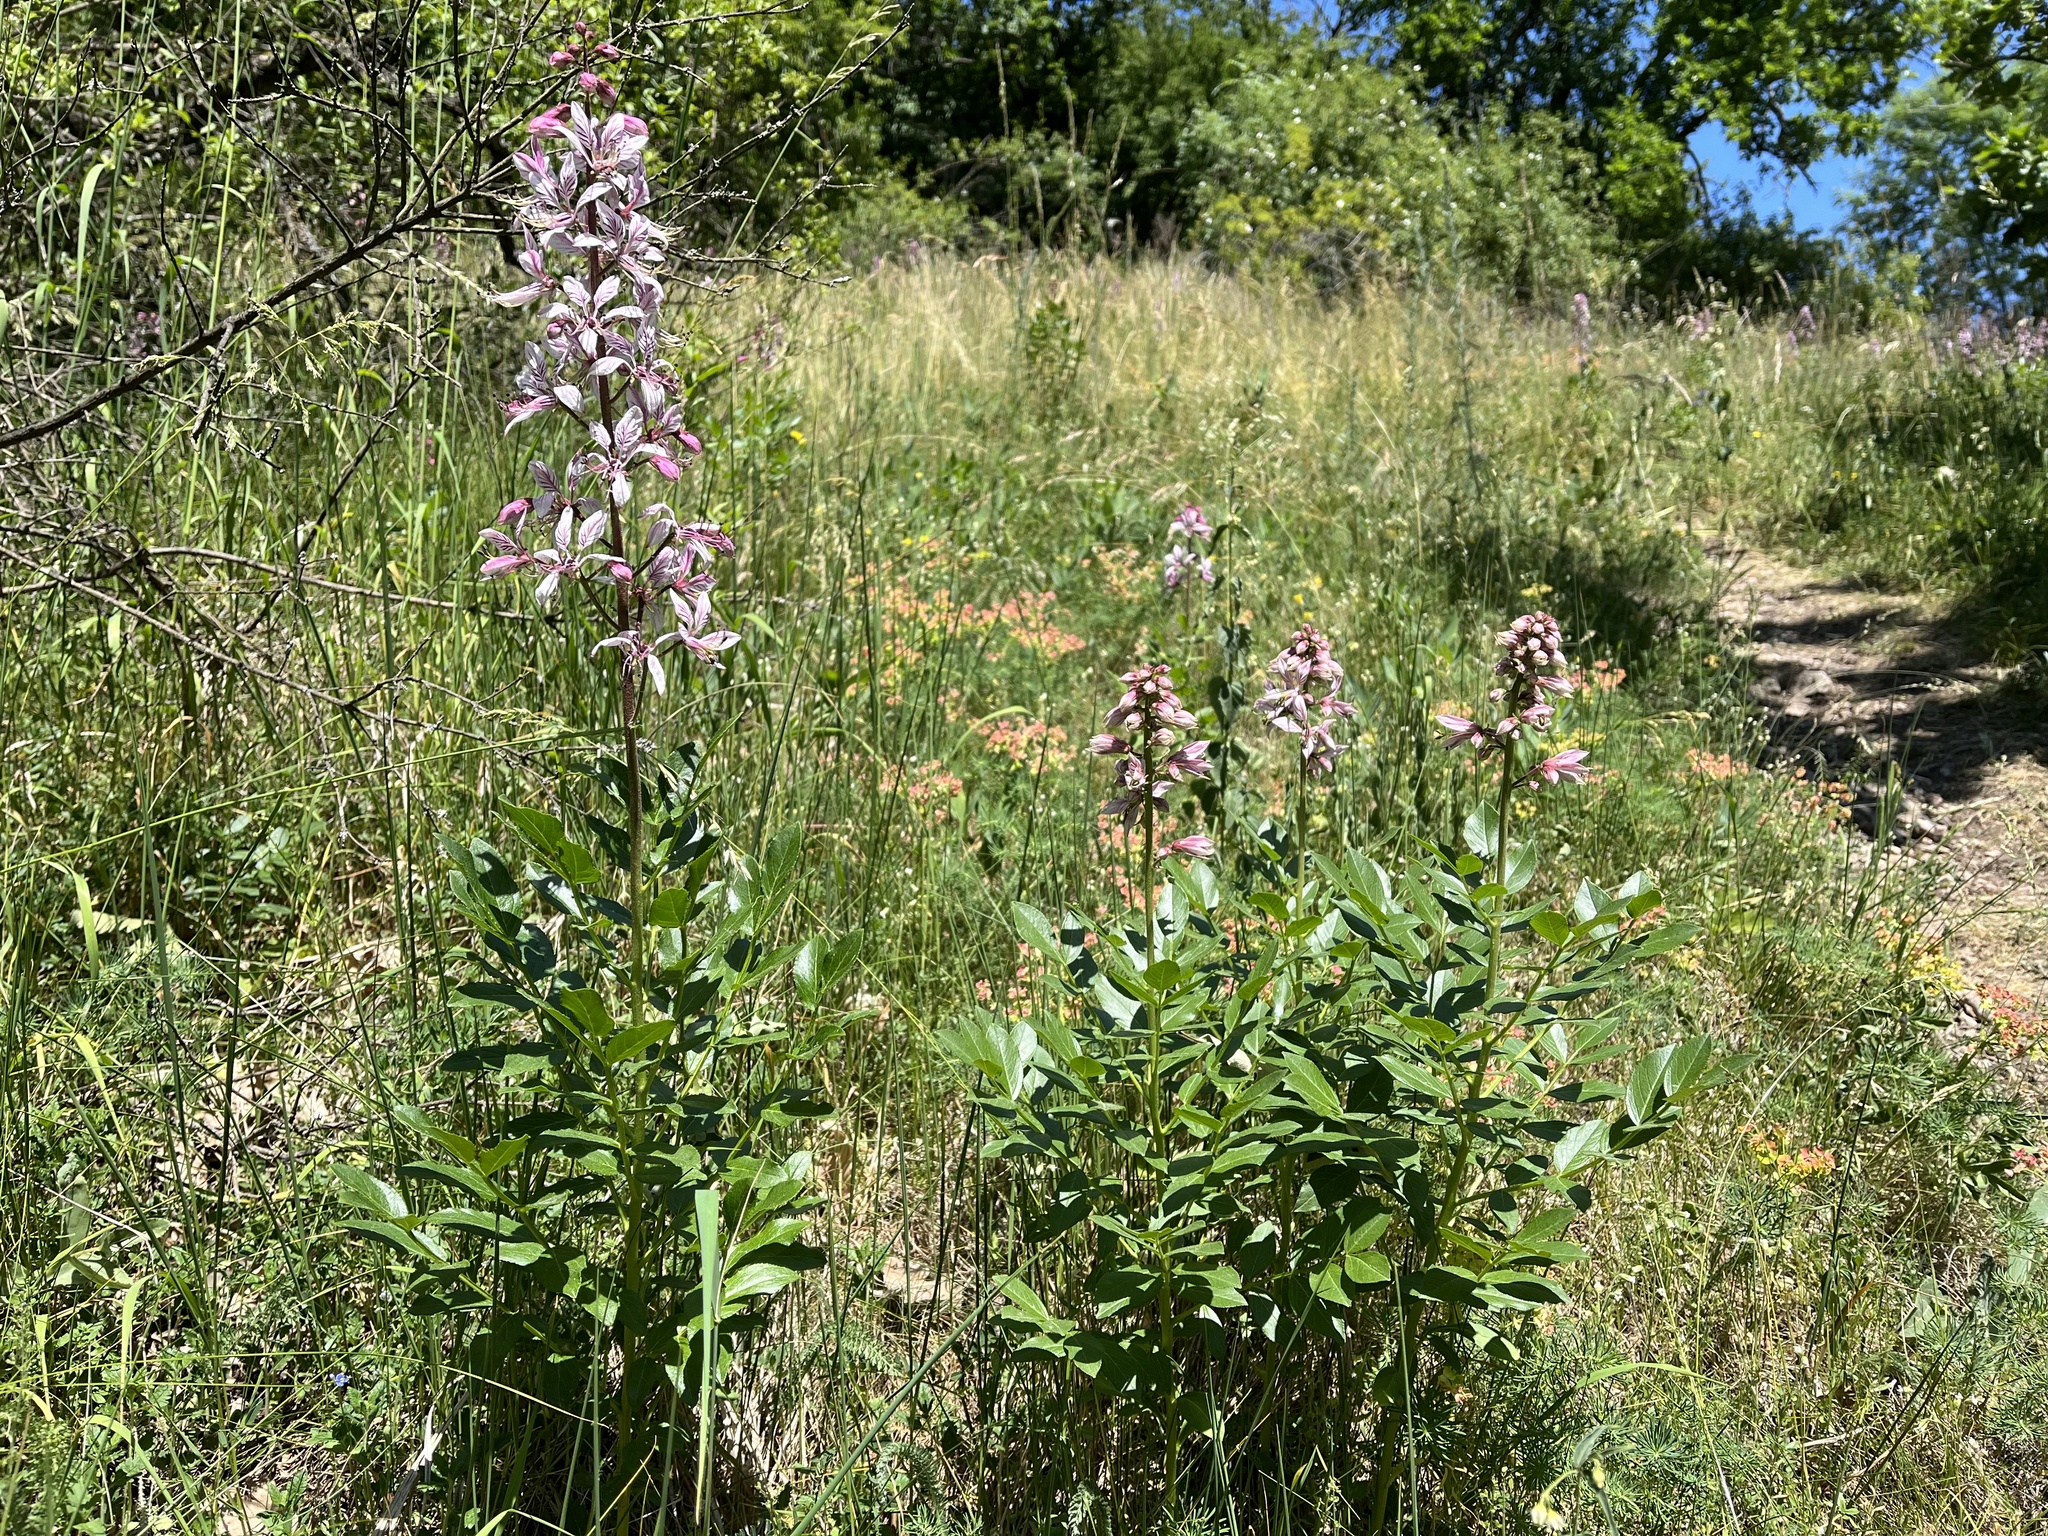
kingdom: Plantae
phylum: Tracheophyta
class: Magnoliopsida
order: Sapindales
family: Rutaceae
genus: Dictamnus
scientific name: Dictamnus albus
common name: Gasplant
